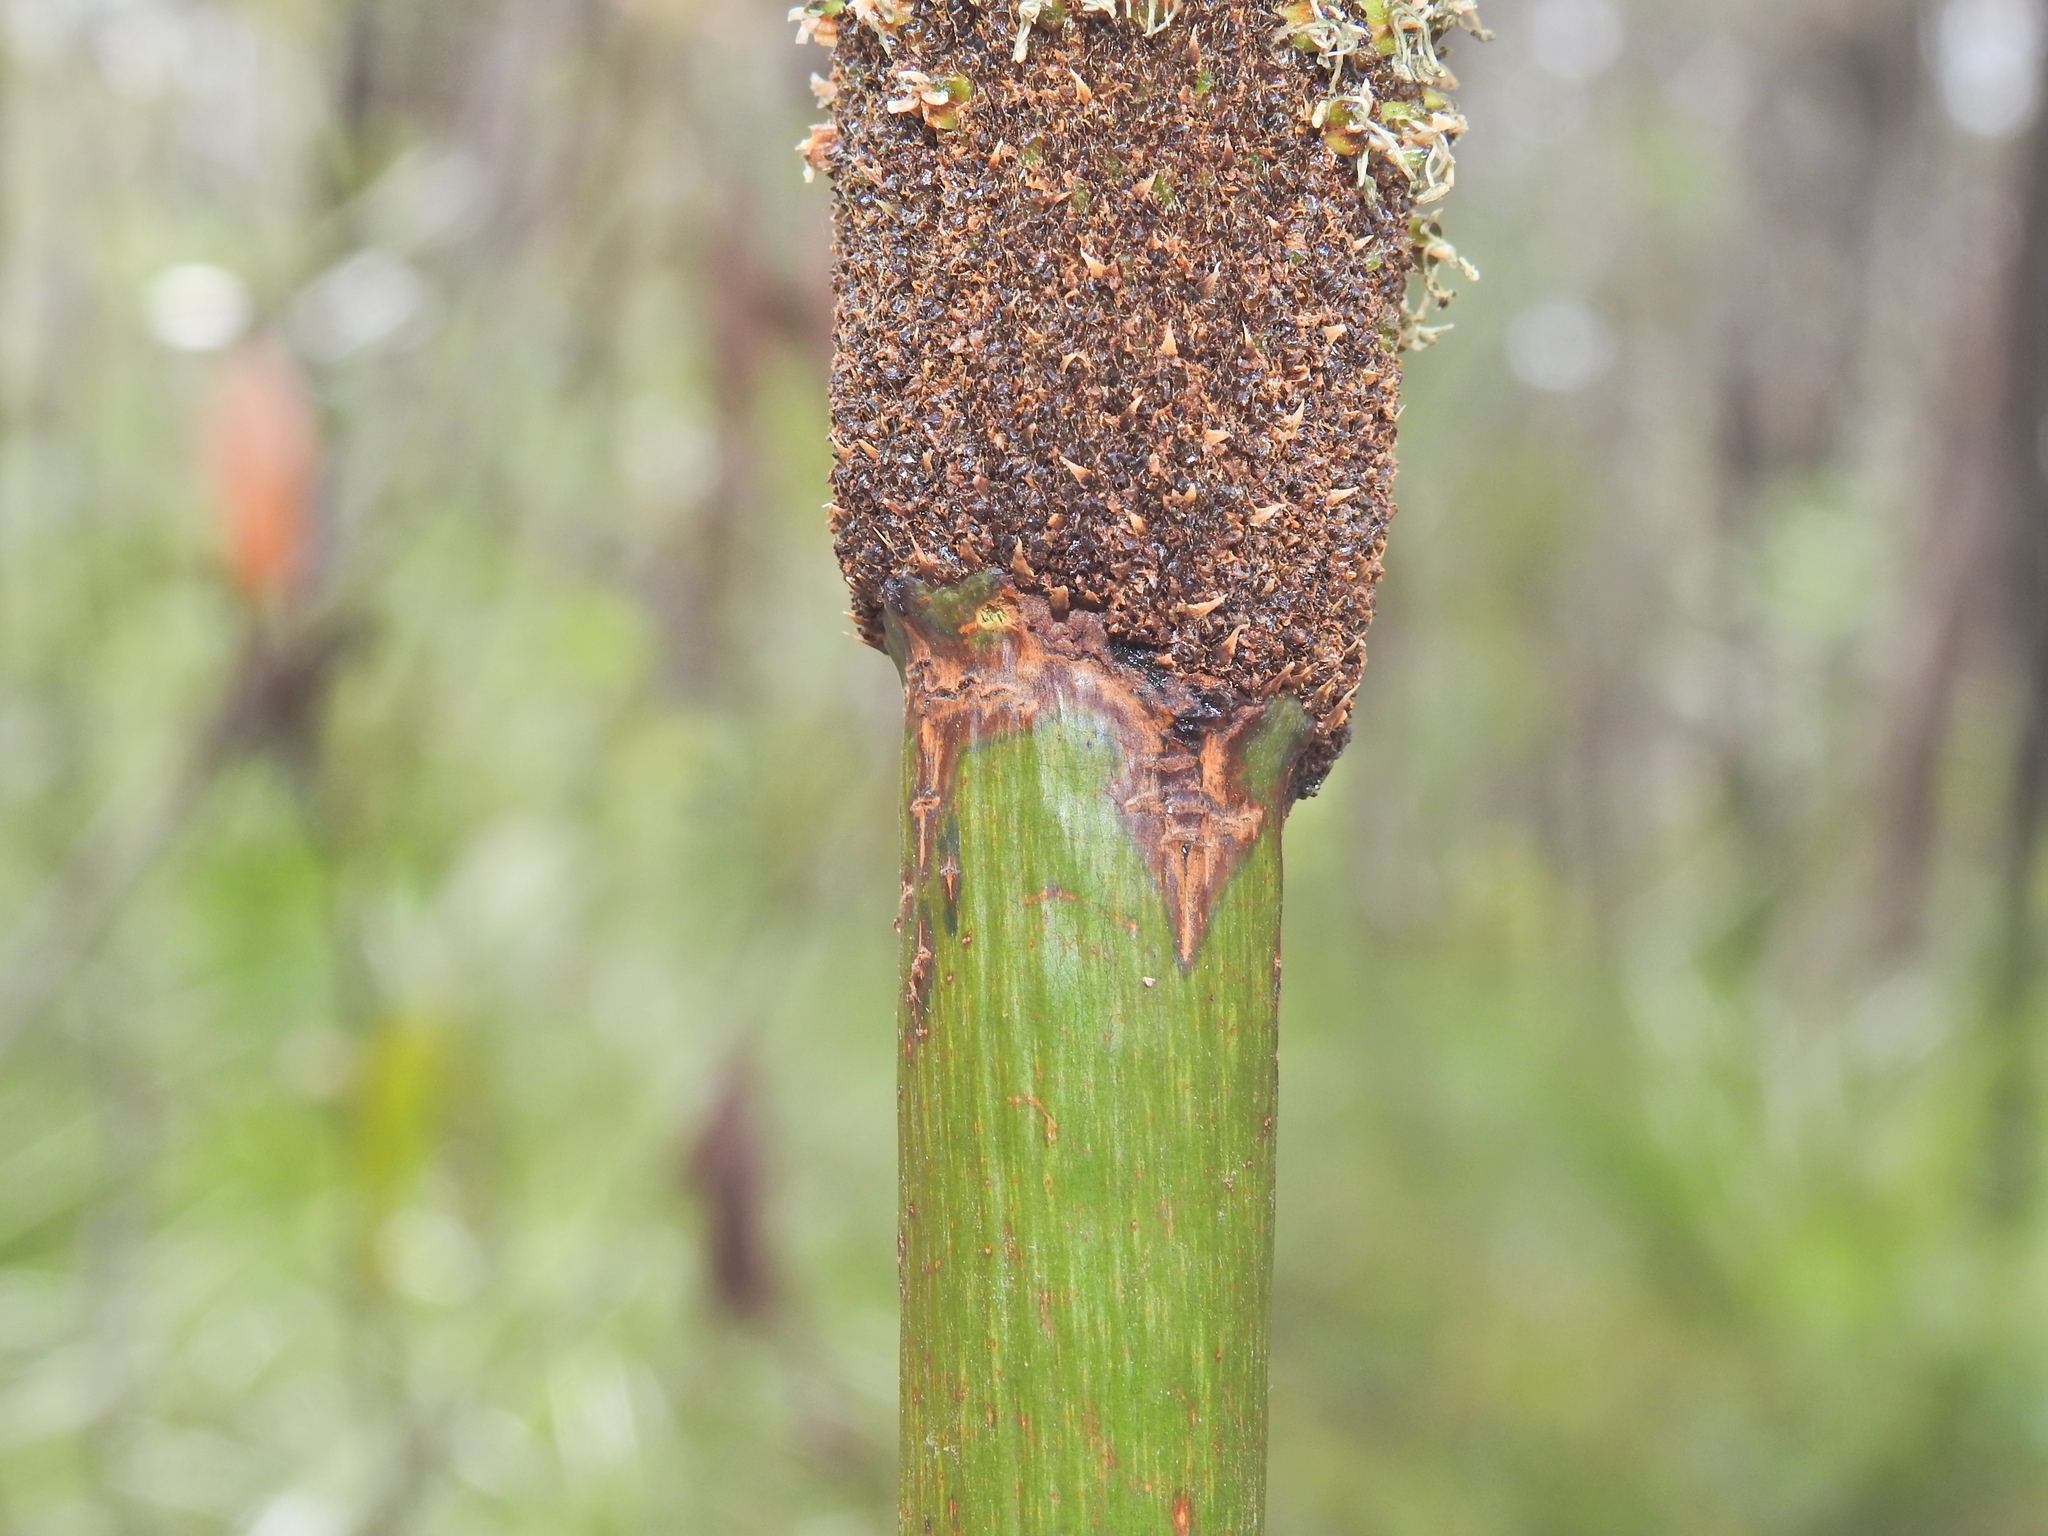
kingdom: Plantae
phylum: Tracheophyta
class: Liliopsida
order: Asparagales
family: Asphodelaceae
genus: Xanthorrhoea
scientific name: Xanthorrhoea latifolia
